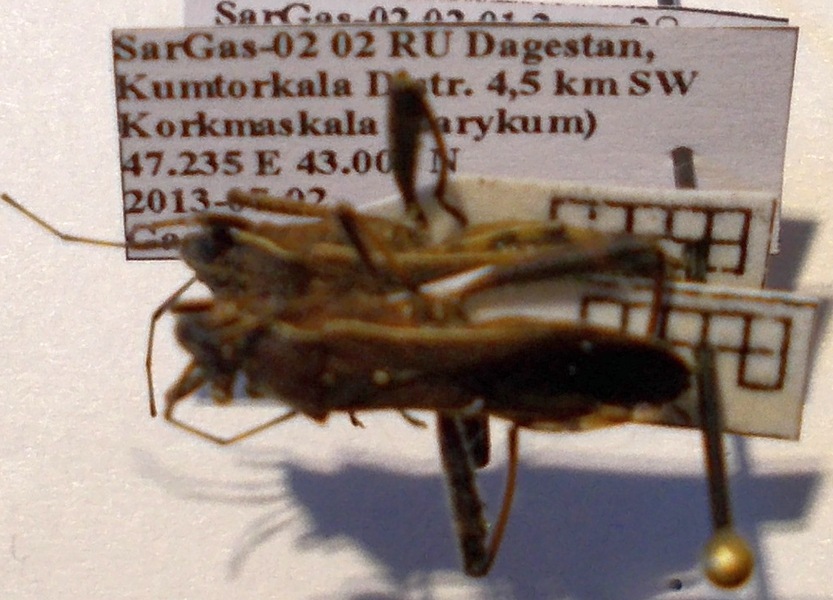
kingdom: Animalia
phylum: Arthropoda
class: Insecta
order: Hemiptera
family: Alydidae
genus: Camptopus
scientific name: Camptopus lateralis
